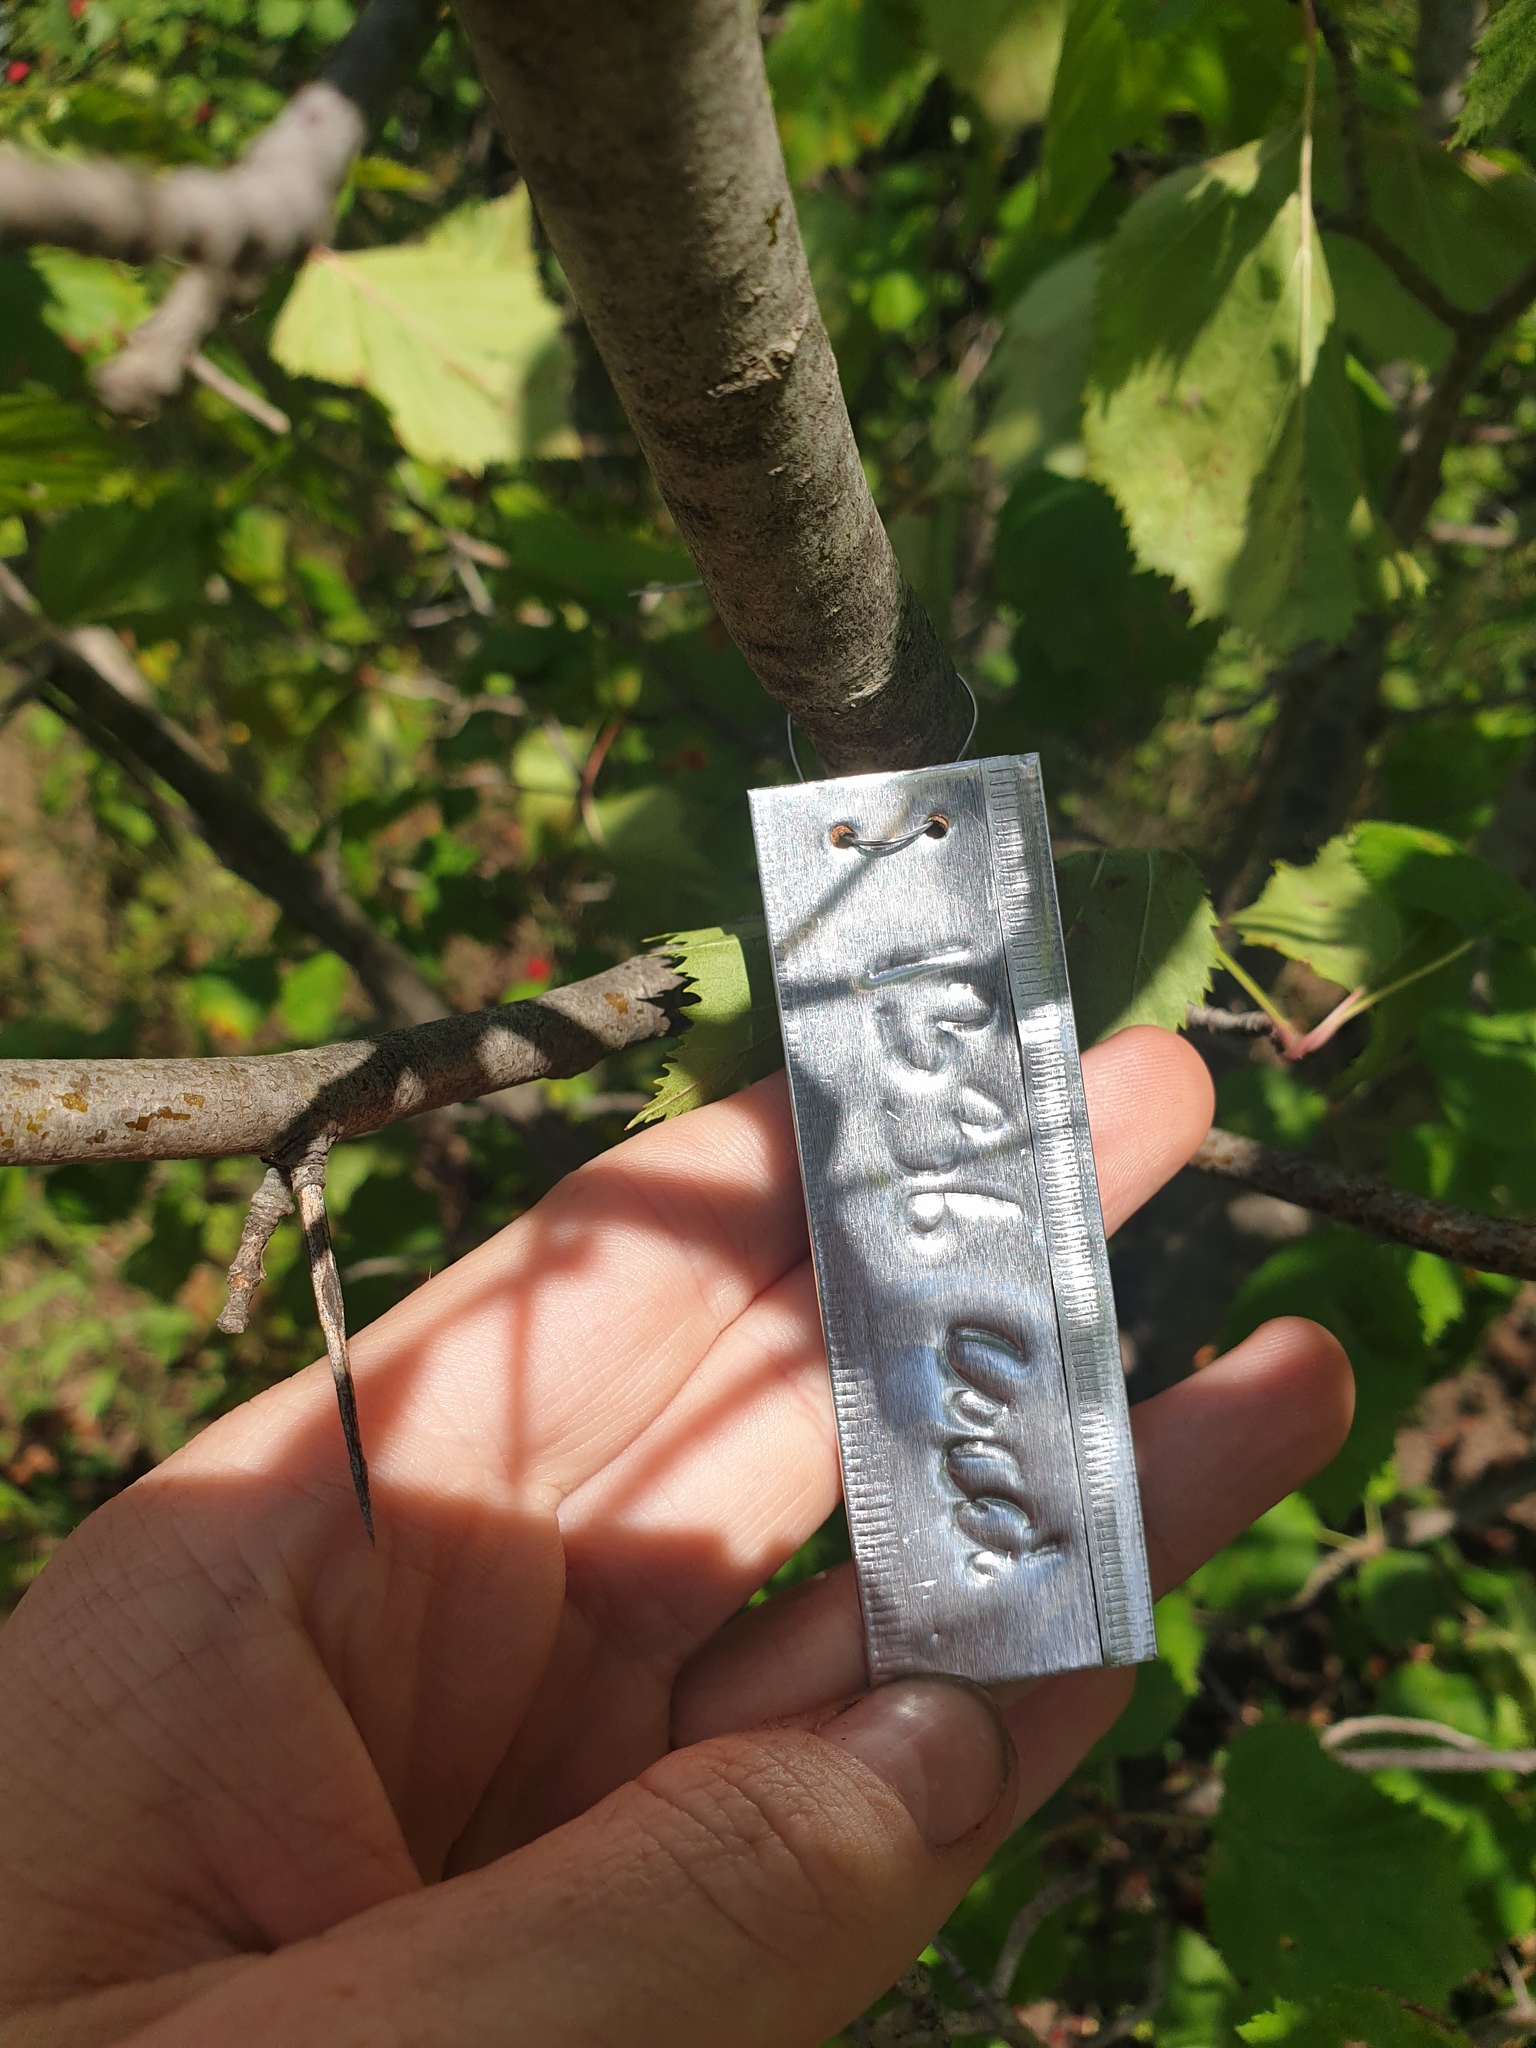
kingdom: Plantae
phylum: Tracheophyta
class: Magnoliopsida
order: Rosales
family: Rosaceae
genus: Crataegus
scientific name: Crataegus coccinioides
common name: Large-flowered cockspurthorn
